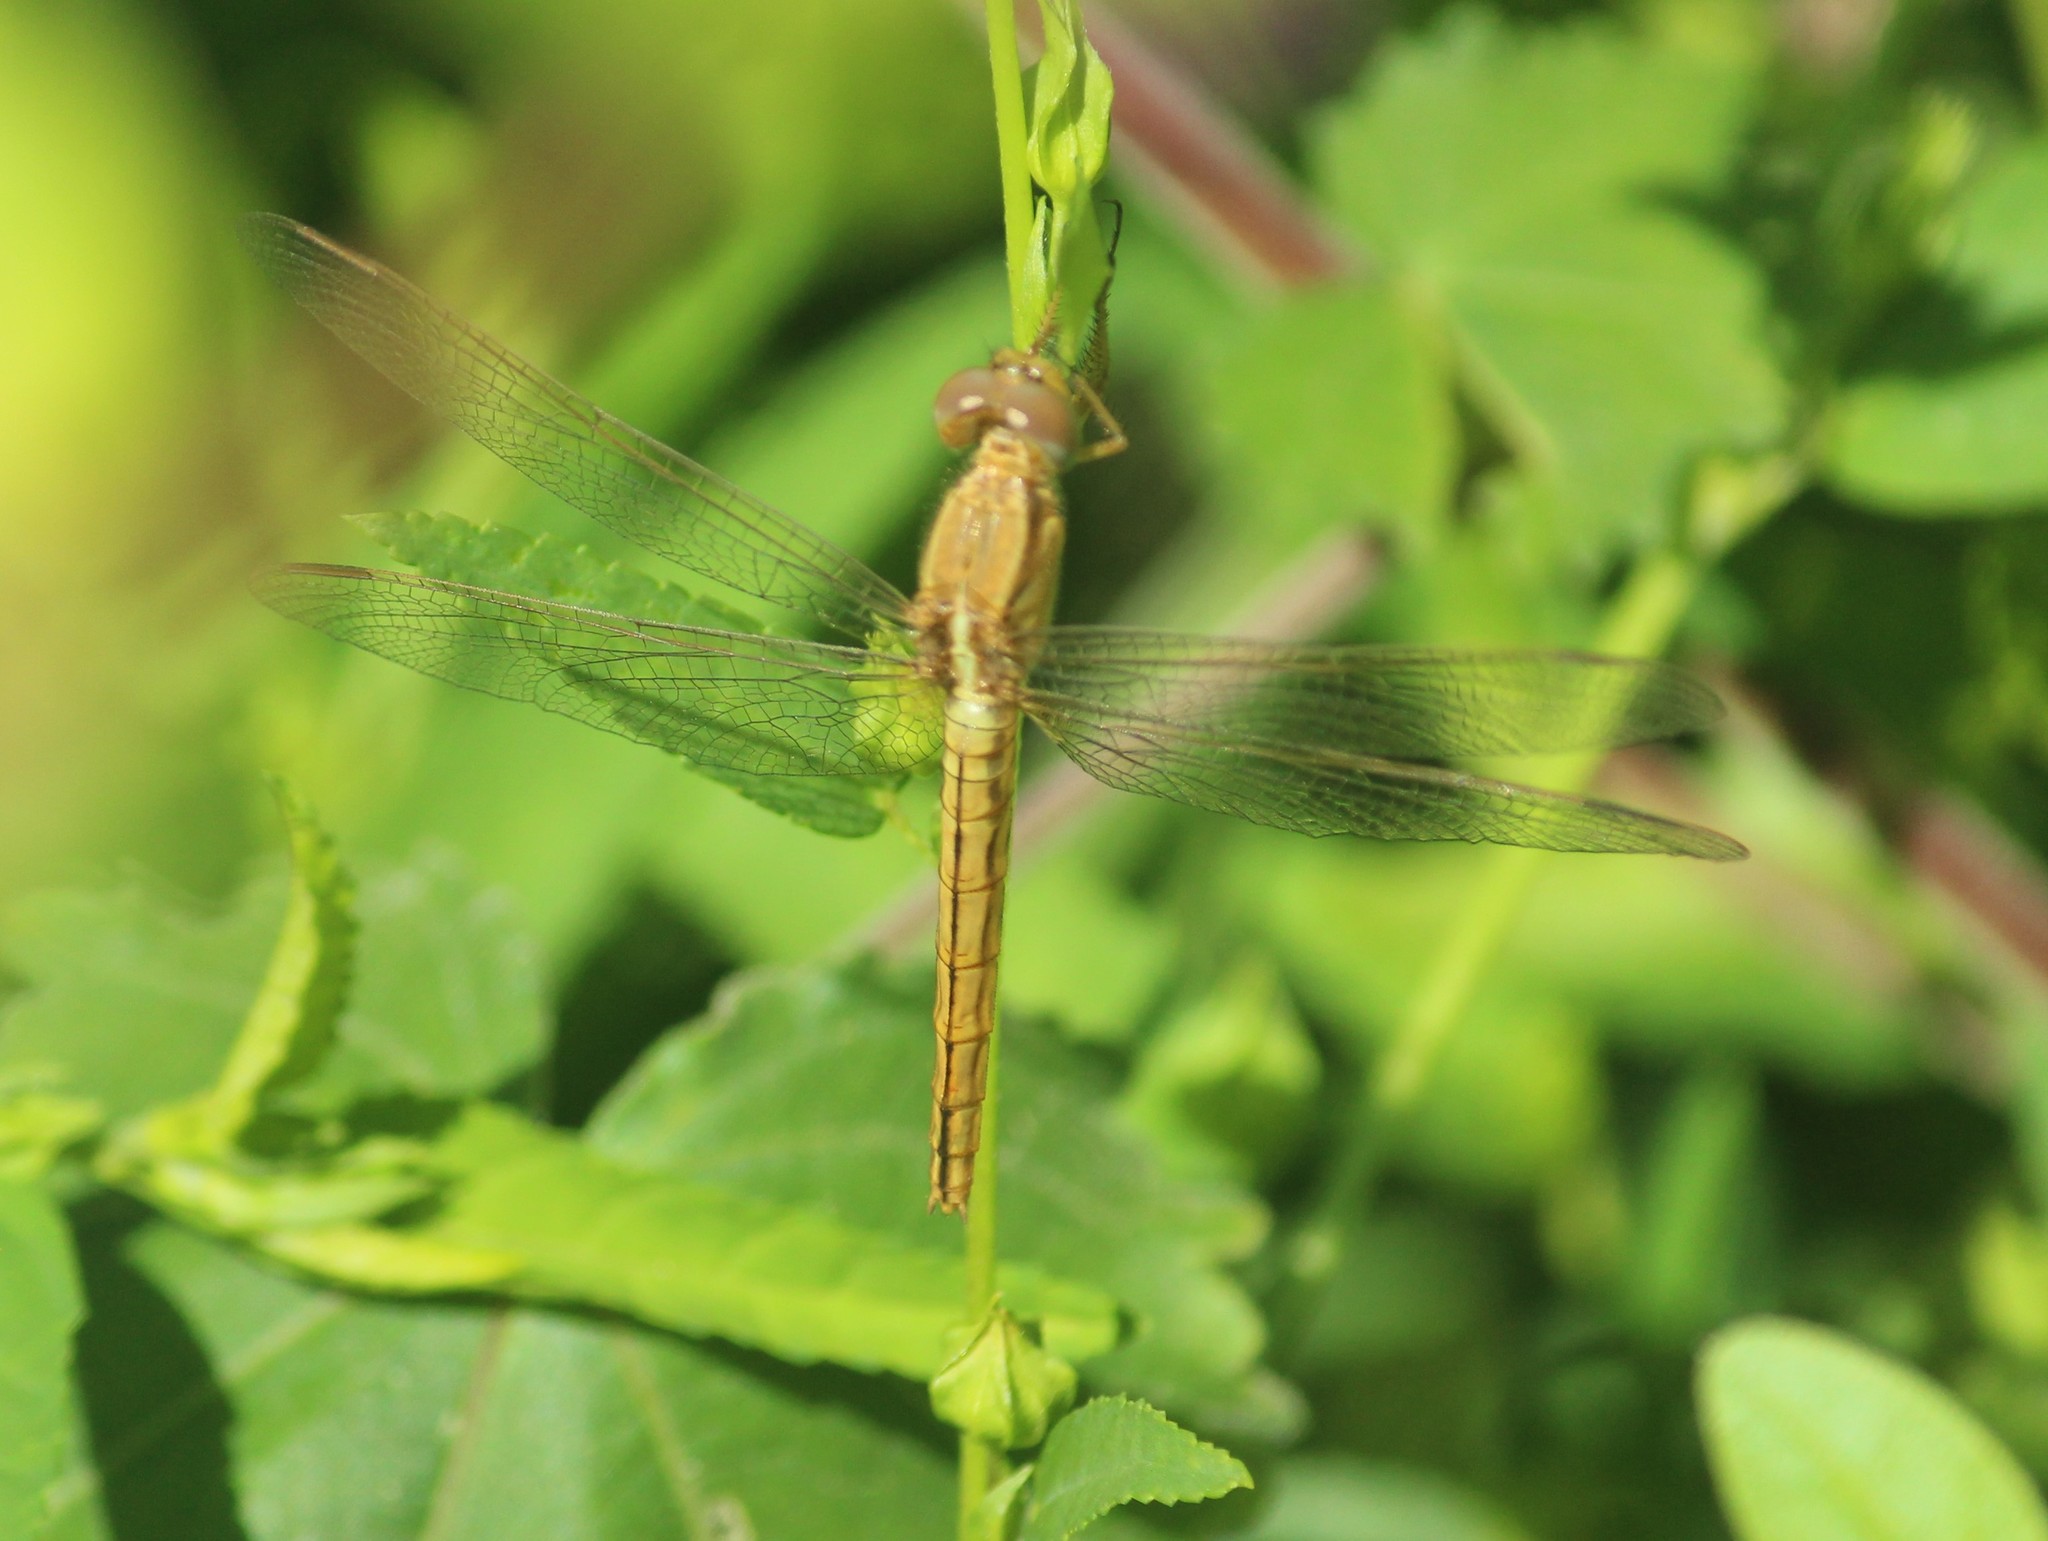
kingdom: Animalia
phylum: Arthropoda
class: Insecta
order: Odonata
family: Libellulidae
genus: Neurothemis
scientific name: Neurothemis intermedia
